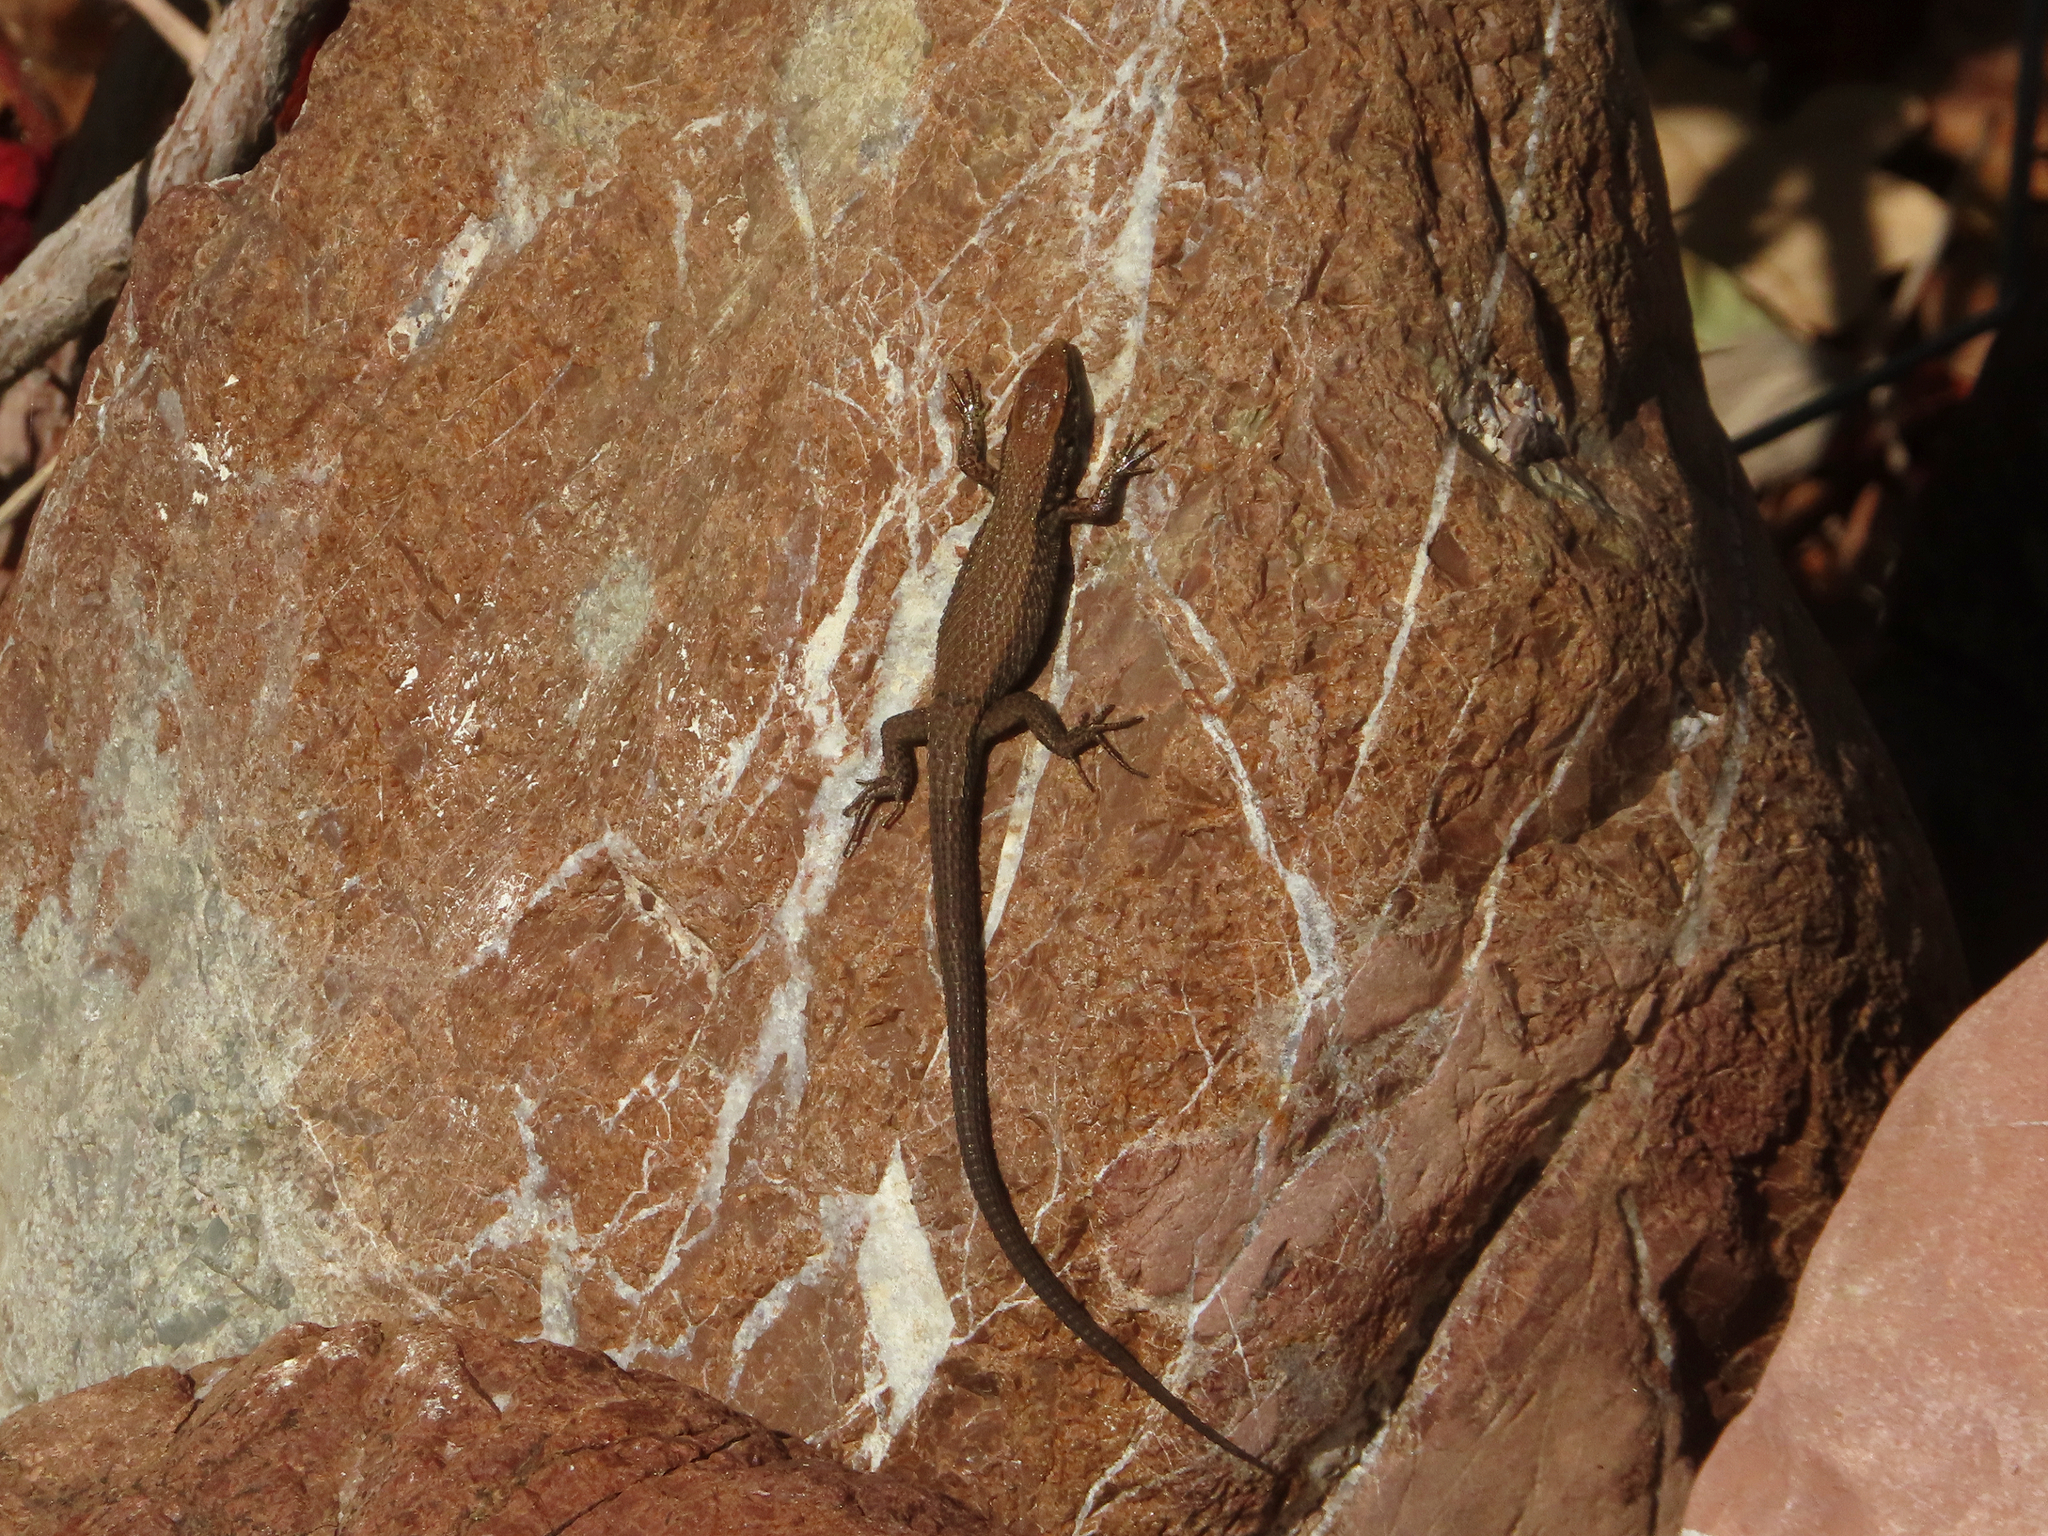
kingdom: Animalia
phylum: Chordata
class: Squamata
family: Lacertidae
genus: Algyroides
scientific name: Algyroides moreoticus
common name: Greek algyroides
